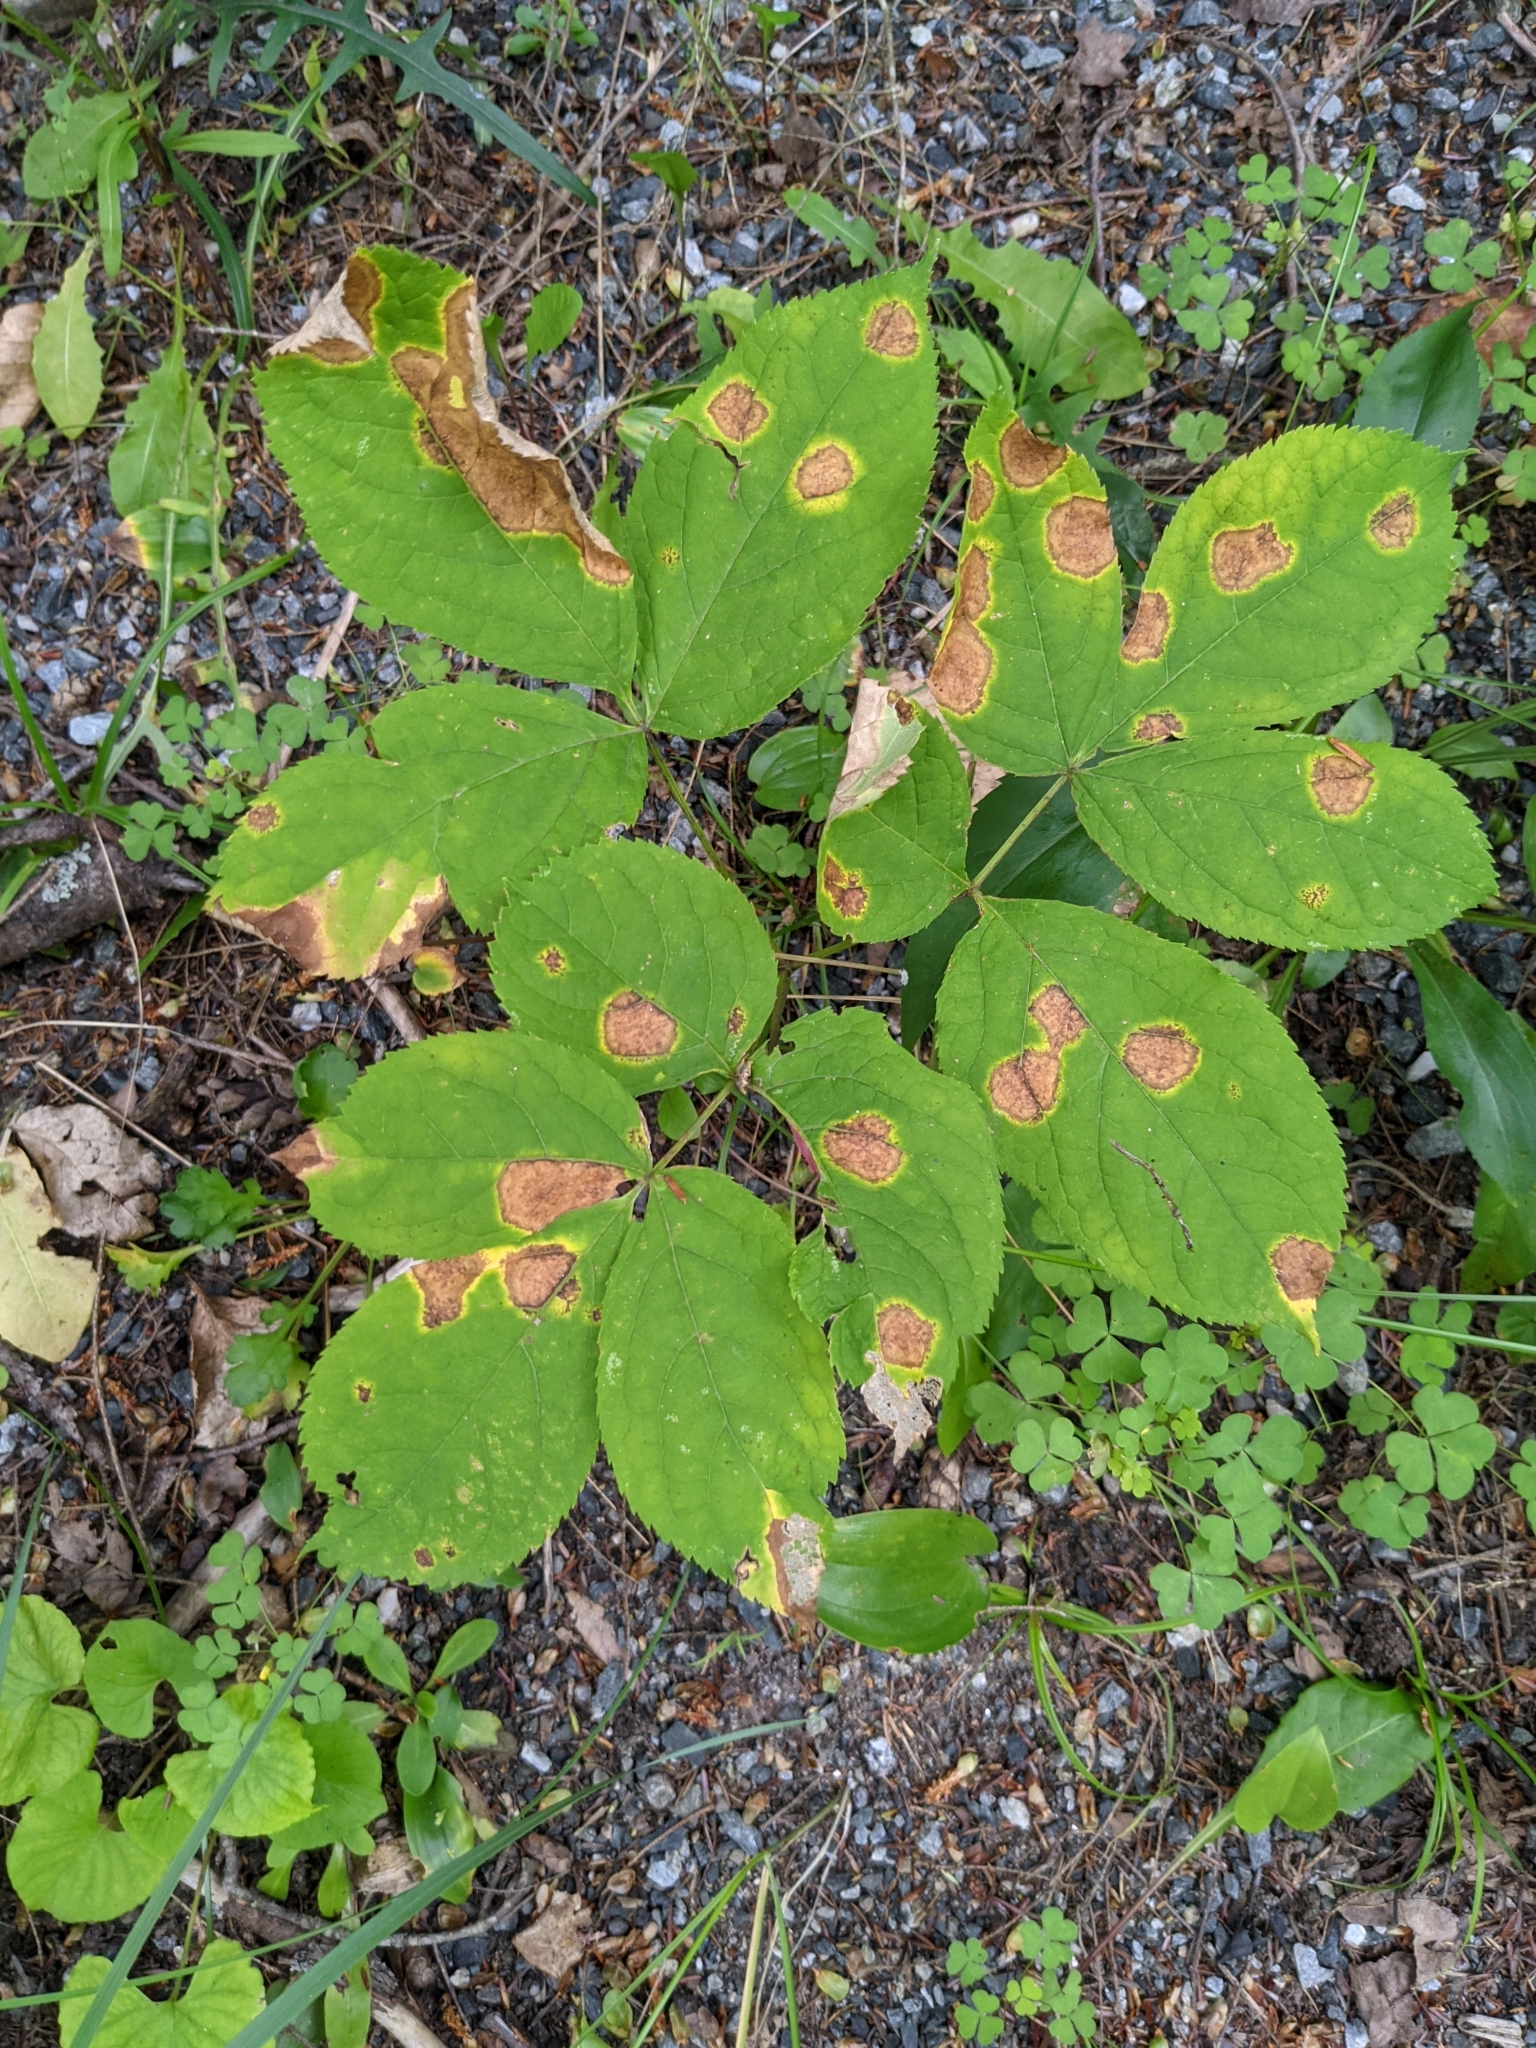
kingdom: Plantae
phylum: Tracheophyta
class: Magnoliopsida
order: Apiales
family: Araliaceae
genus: Aralia
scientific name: Aralia nudicaulis
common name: Wild sarsaparilla
